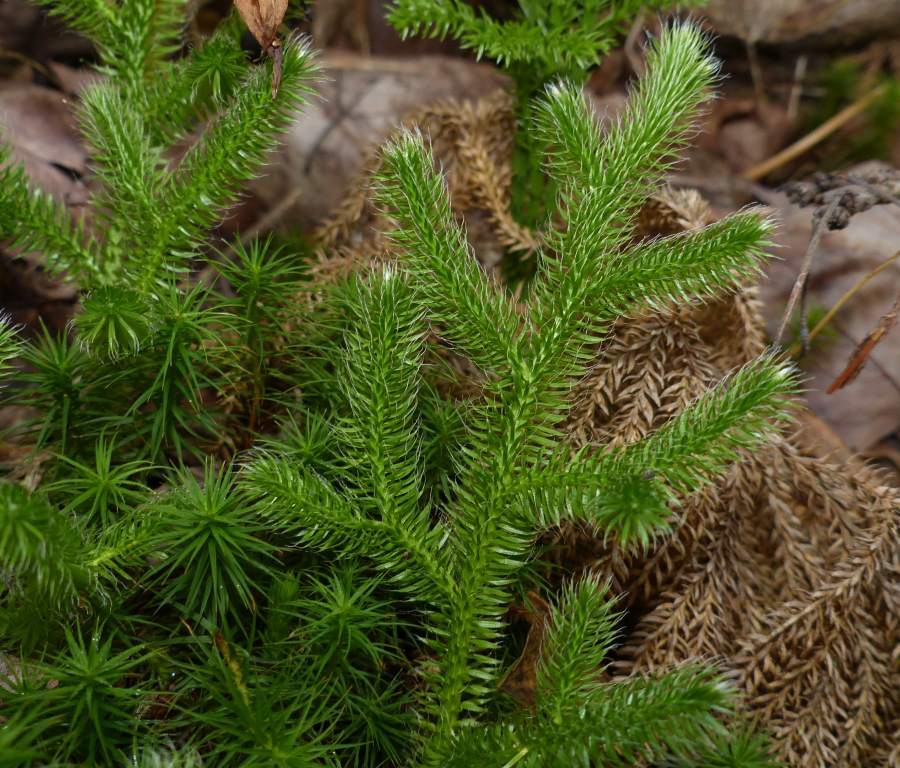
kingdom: Plantae
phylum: Tracheophyta
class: Lycopodiopsida
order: Lycopodiales
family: Lycopodiaceae
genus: Lycopodium
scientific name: Lycopodium clavatum
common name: Stag's-horn clubmoss
